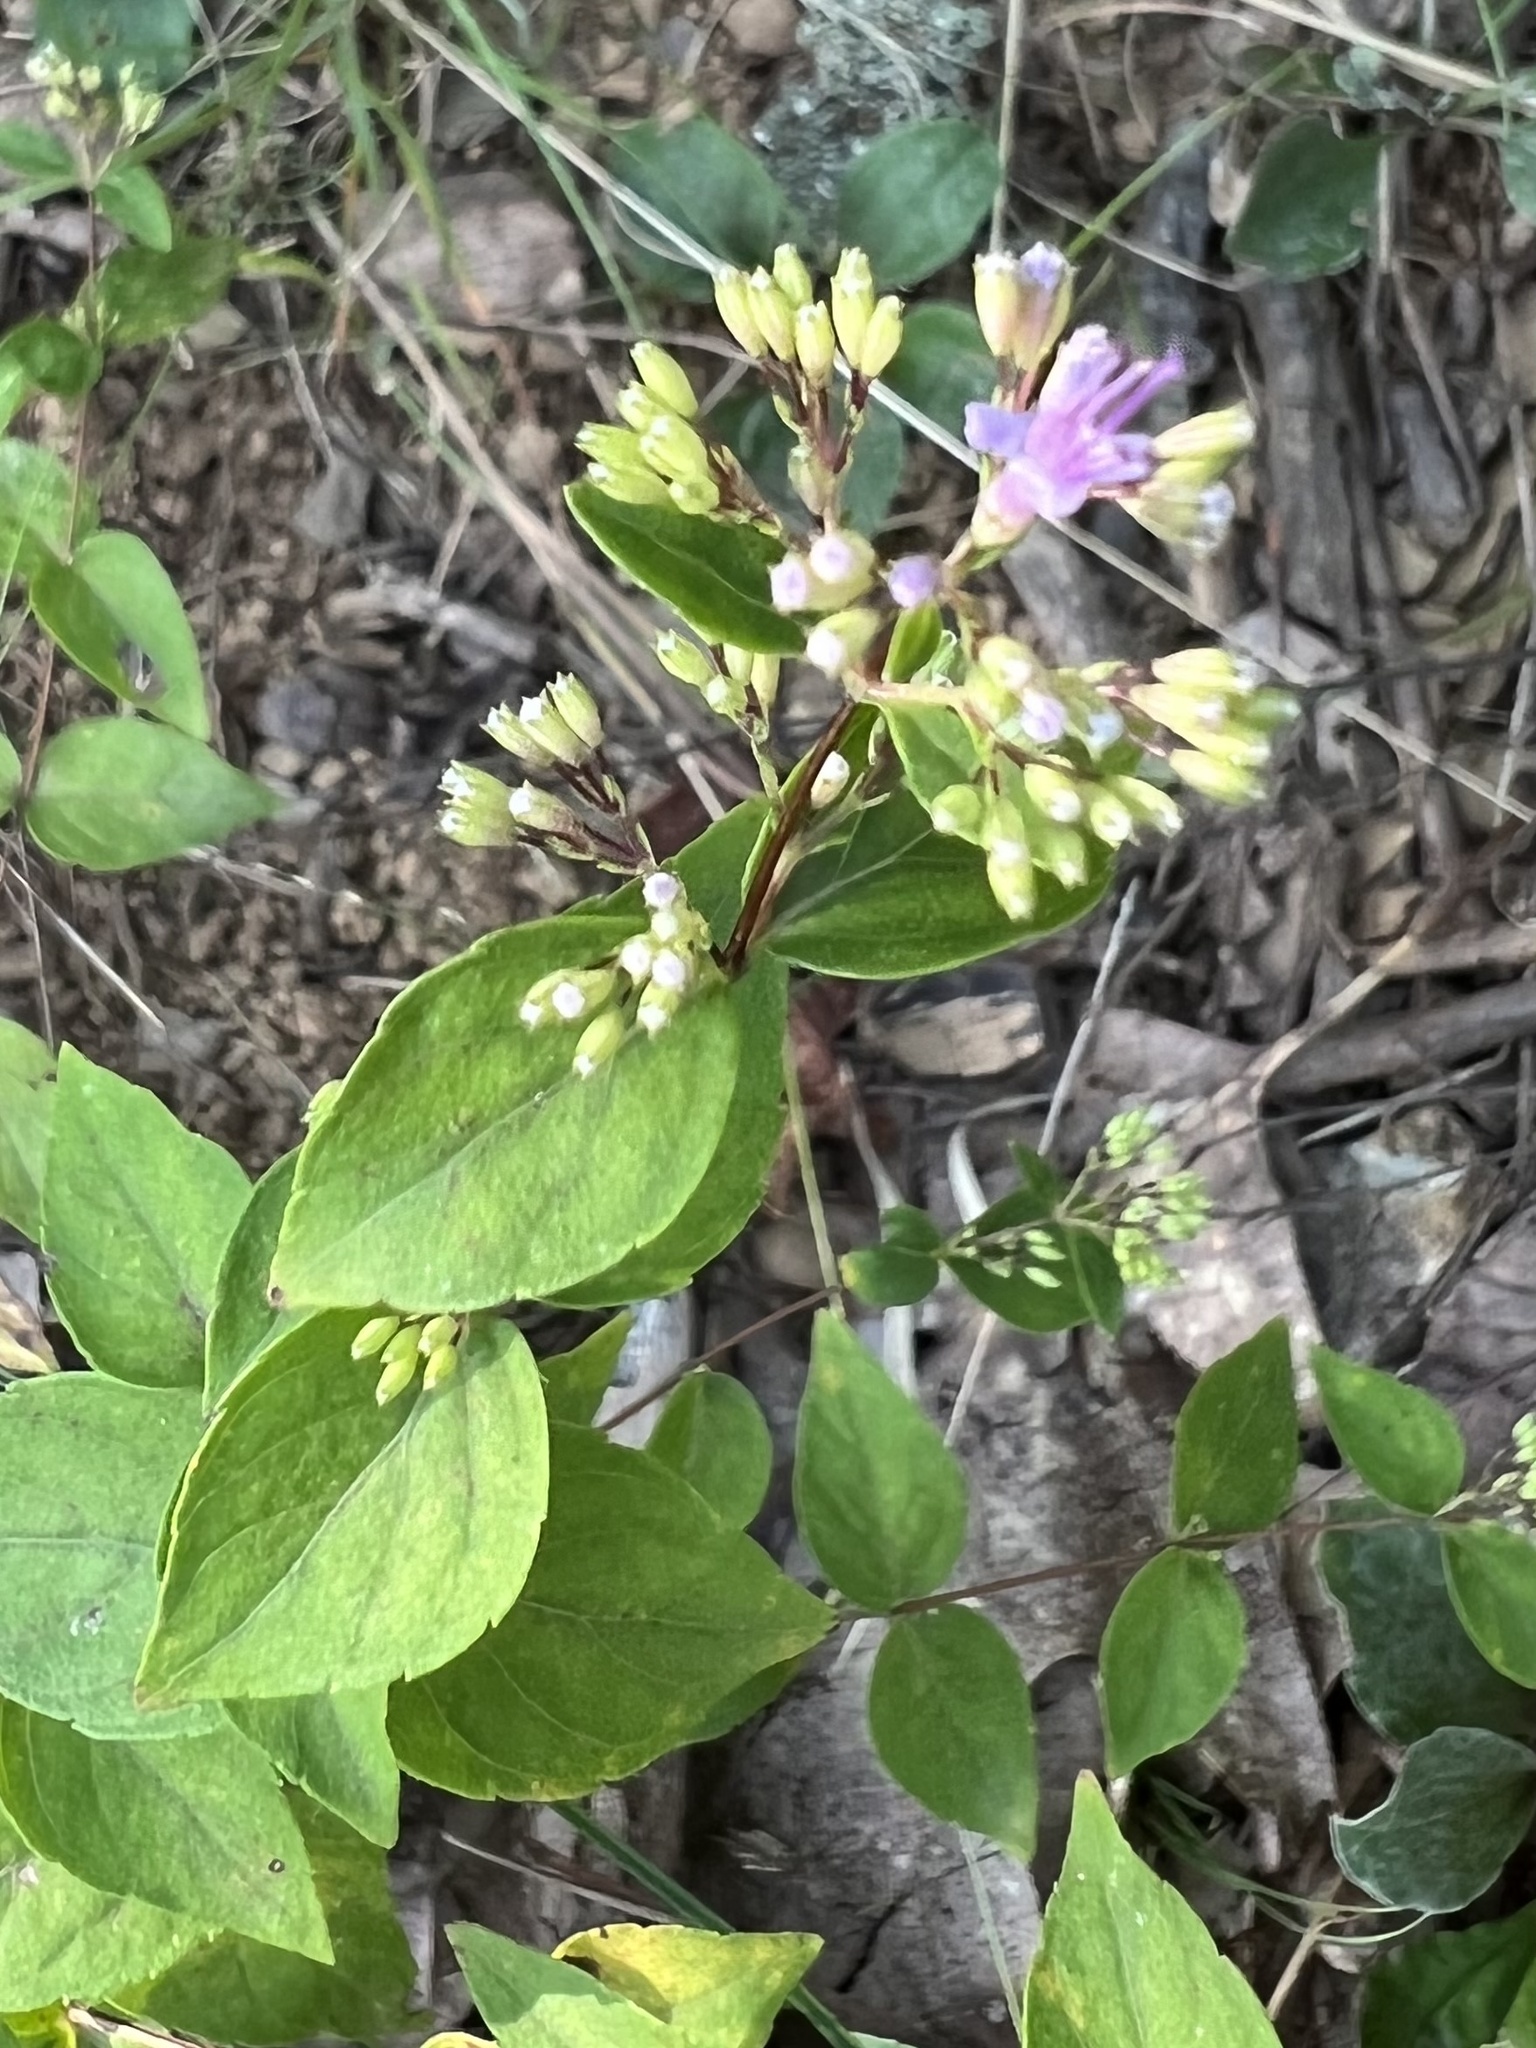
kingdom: Plantae
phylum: Tracheophyta
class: Magnoliopsida
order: Lamiales
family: Lamiaceae
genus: Cunila
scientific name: Cunila origanoides
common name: American dittany
